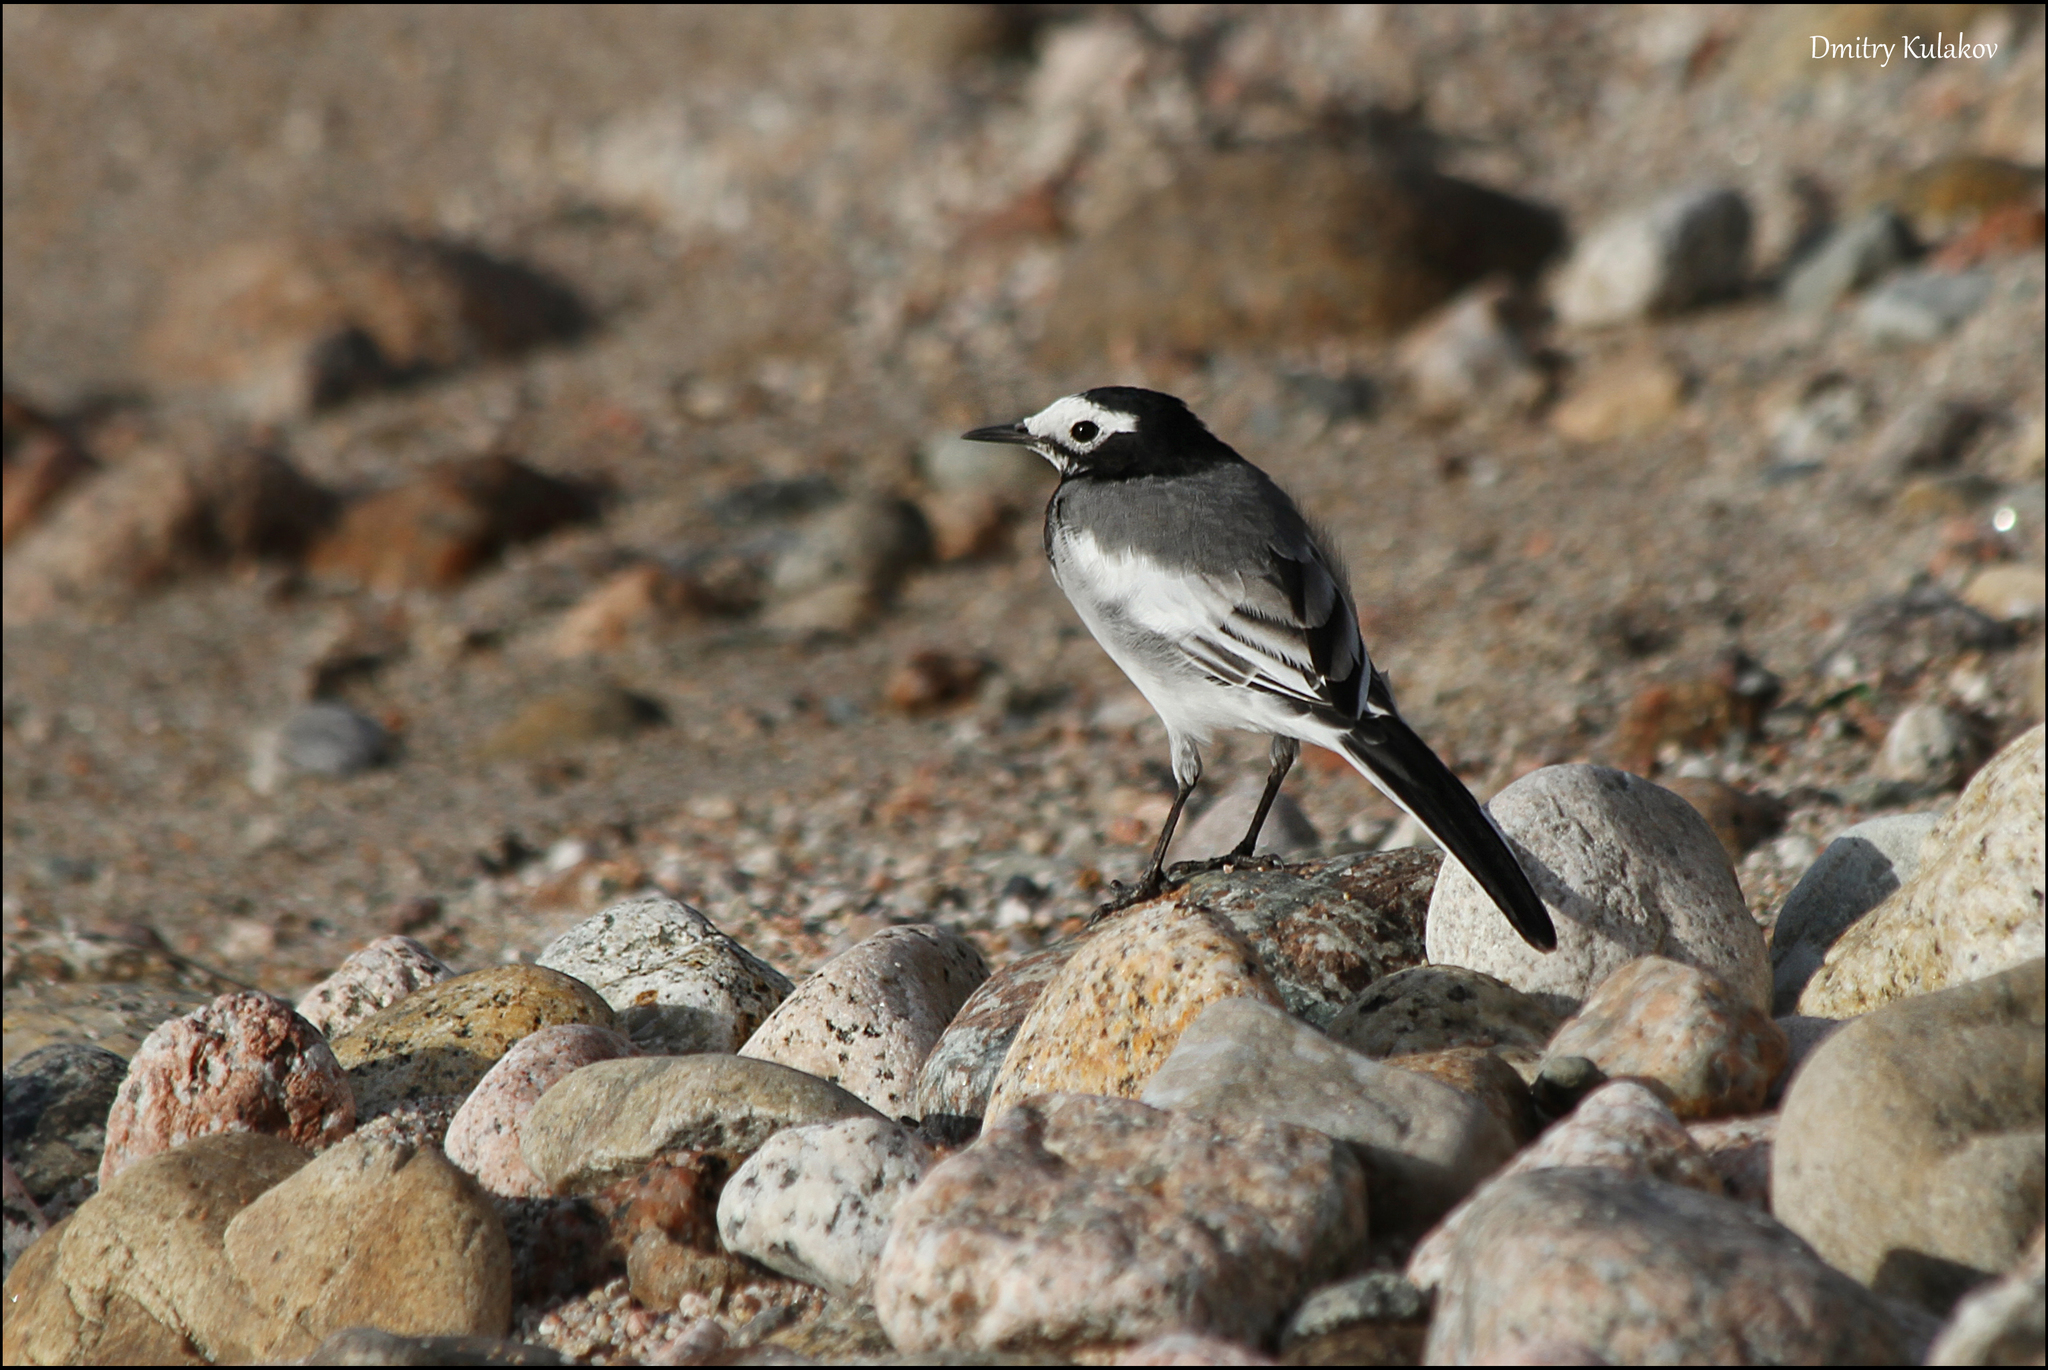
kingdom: Animalia
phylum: Chordata
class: Aves
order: Passeriformes
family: Motacillidae
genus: Motacilla
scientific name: Motacilla alba
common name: White wagtail
